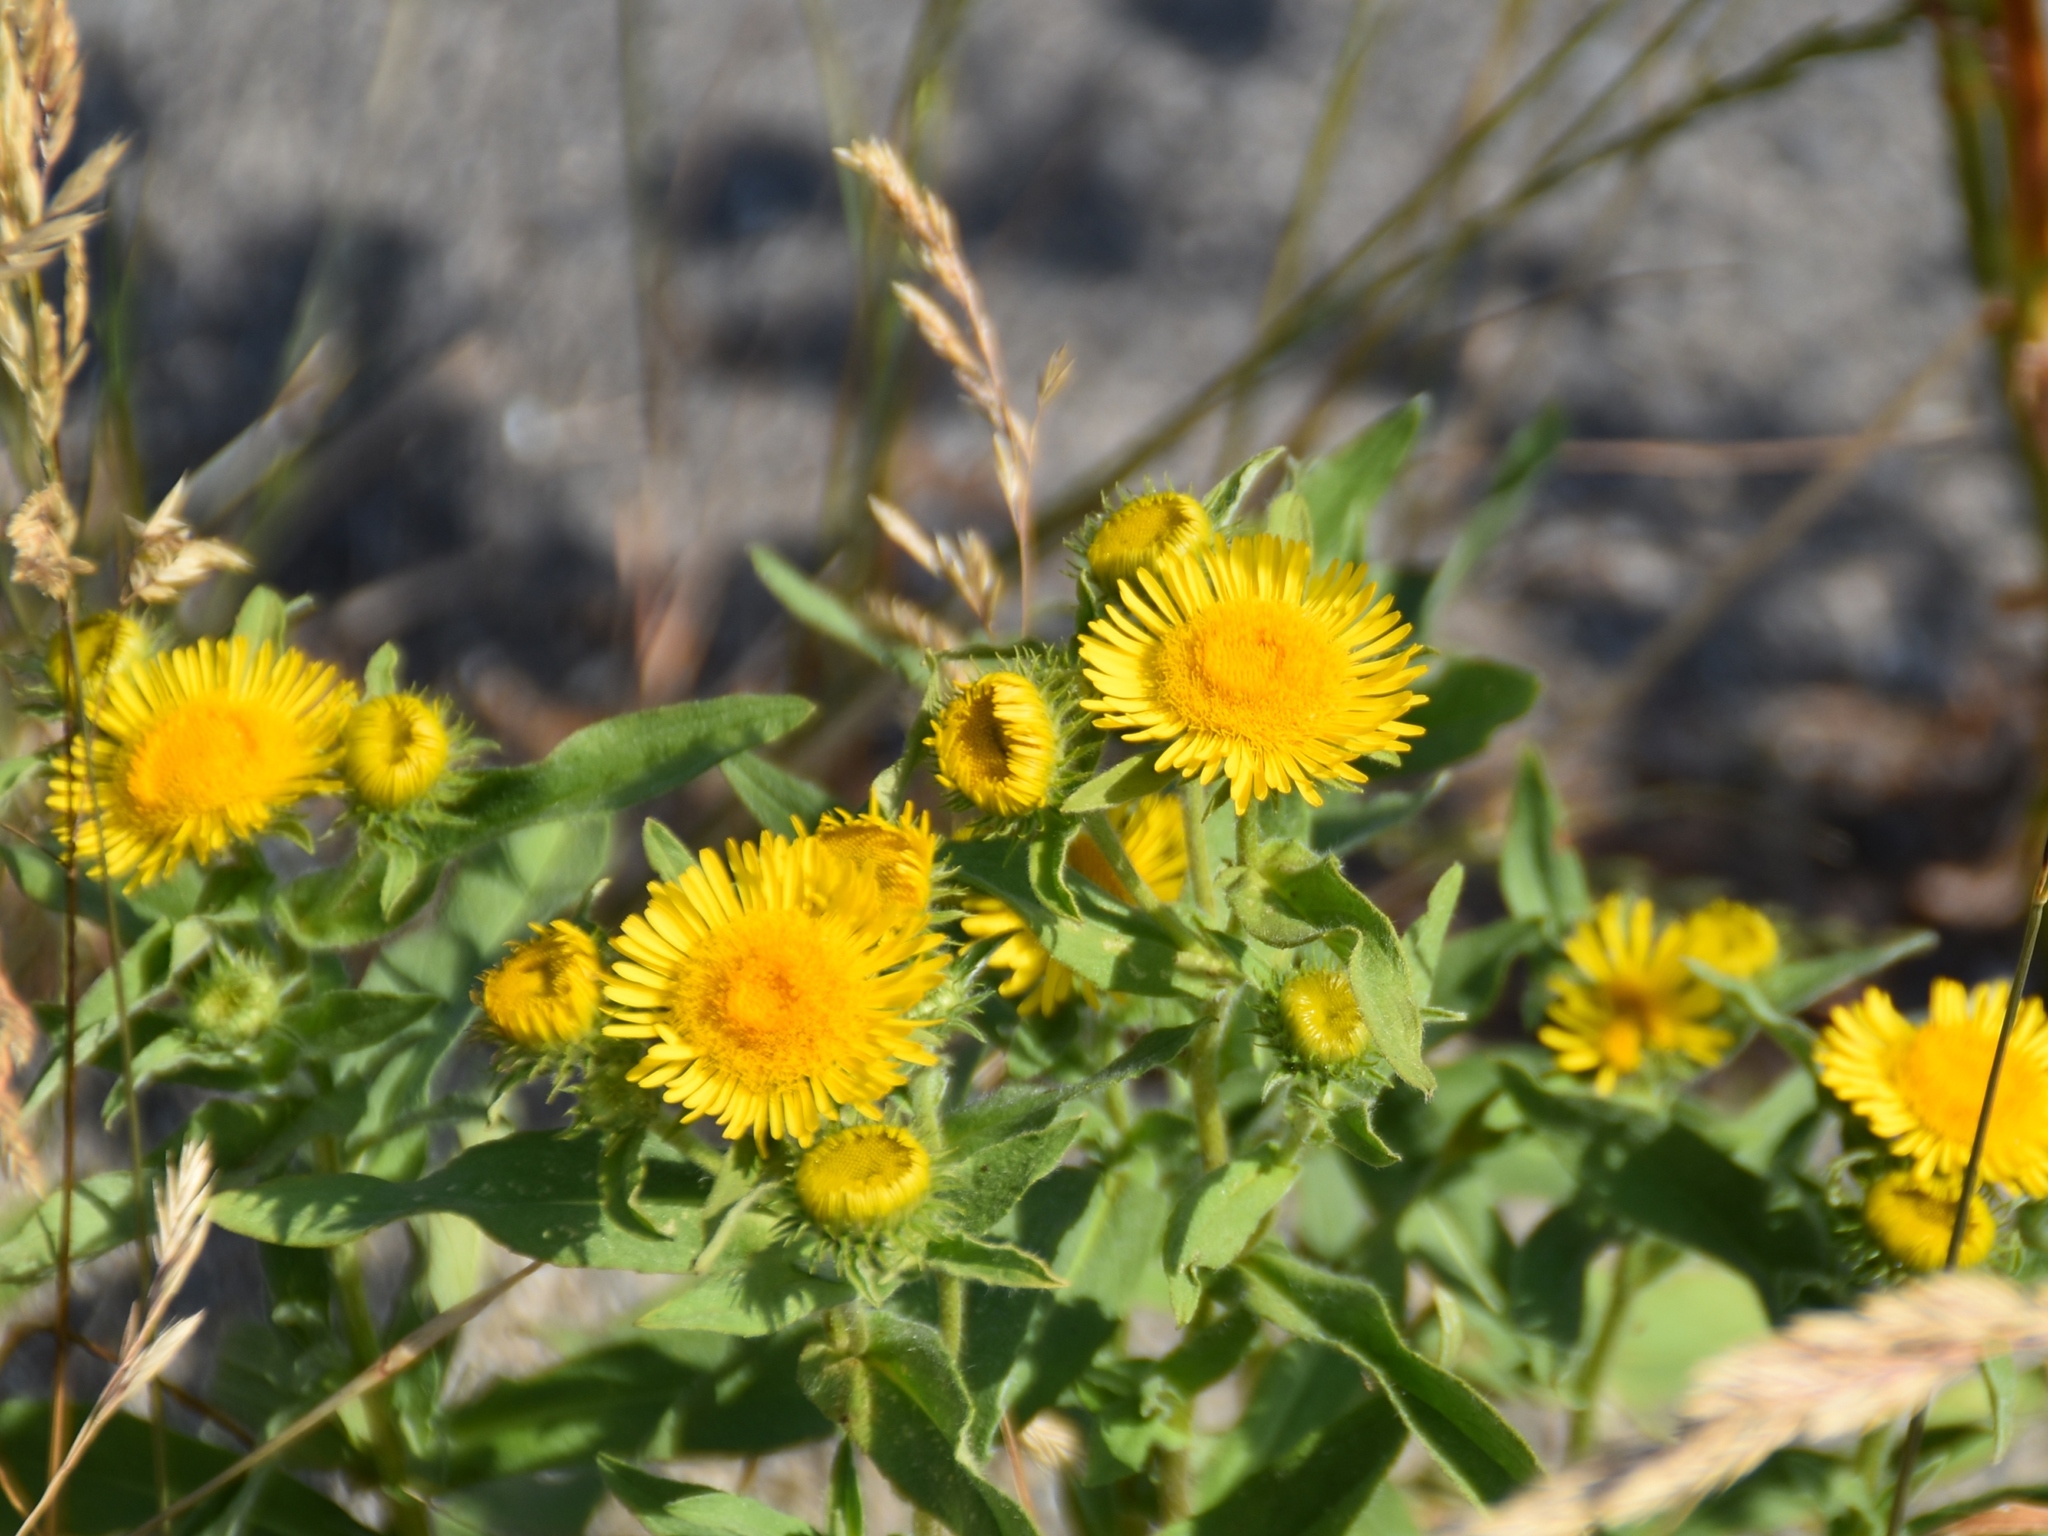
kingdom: Plantae
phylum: Tracheophyta
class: Magnoliopsida
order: Asterales
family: Asteraceae
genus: Pentanema
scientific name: Pentanema britannicum
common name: British elecampane
